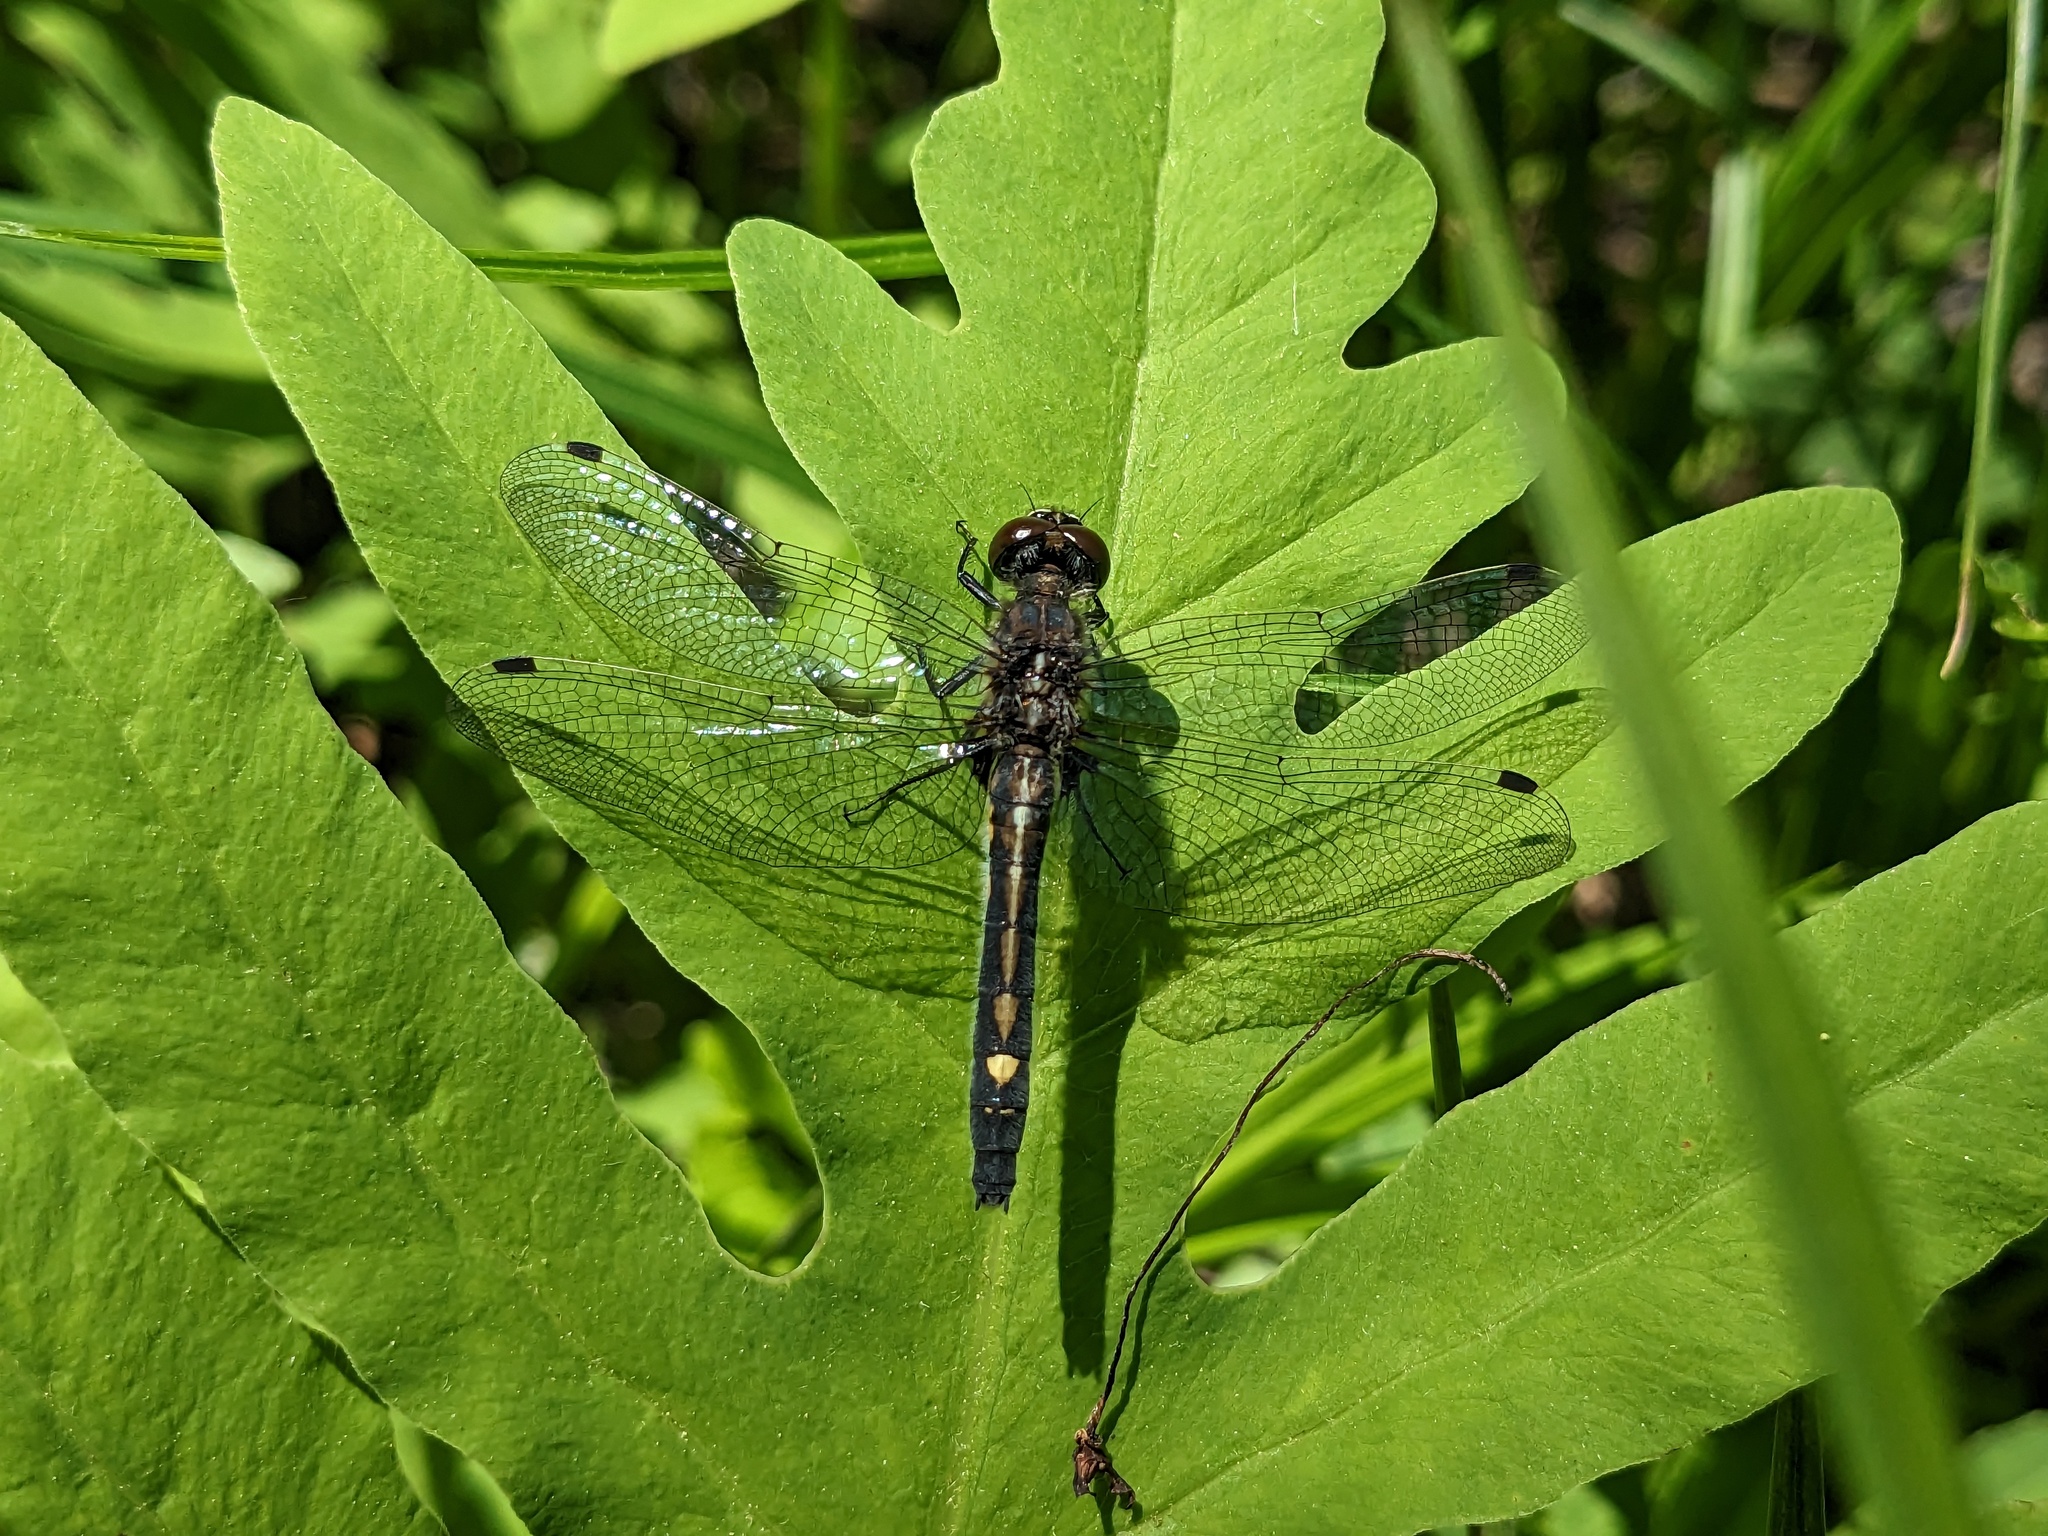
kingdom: Animalia
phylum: Arthropoda
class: Insecta
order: Odonata
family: Libellulidae
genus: Leucorrhinia
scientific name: Leucorrhinia intacta
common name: Dot-tailed whiteface
